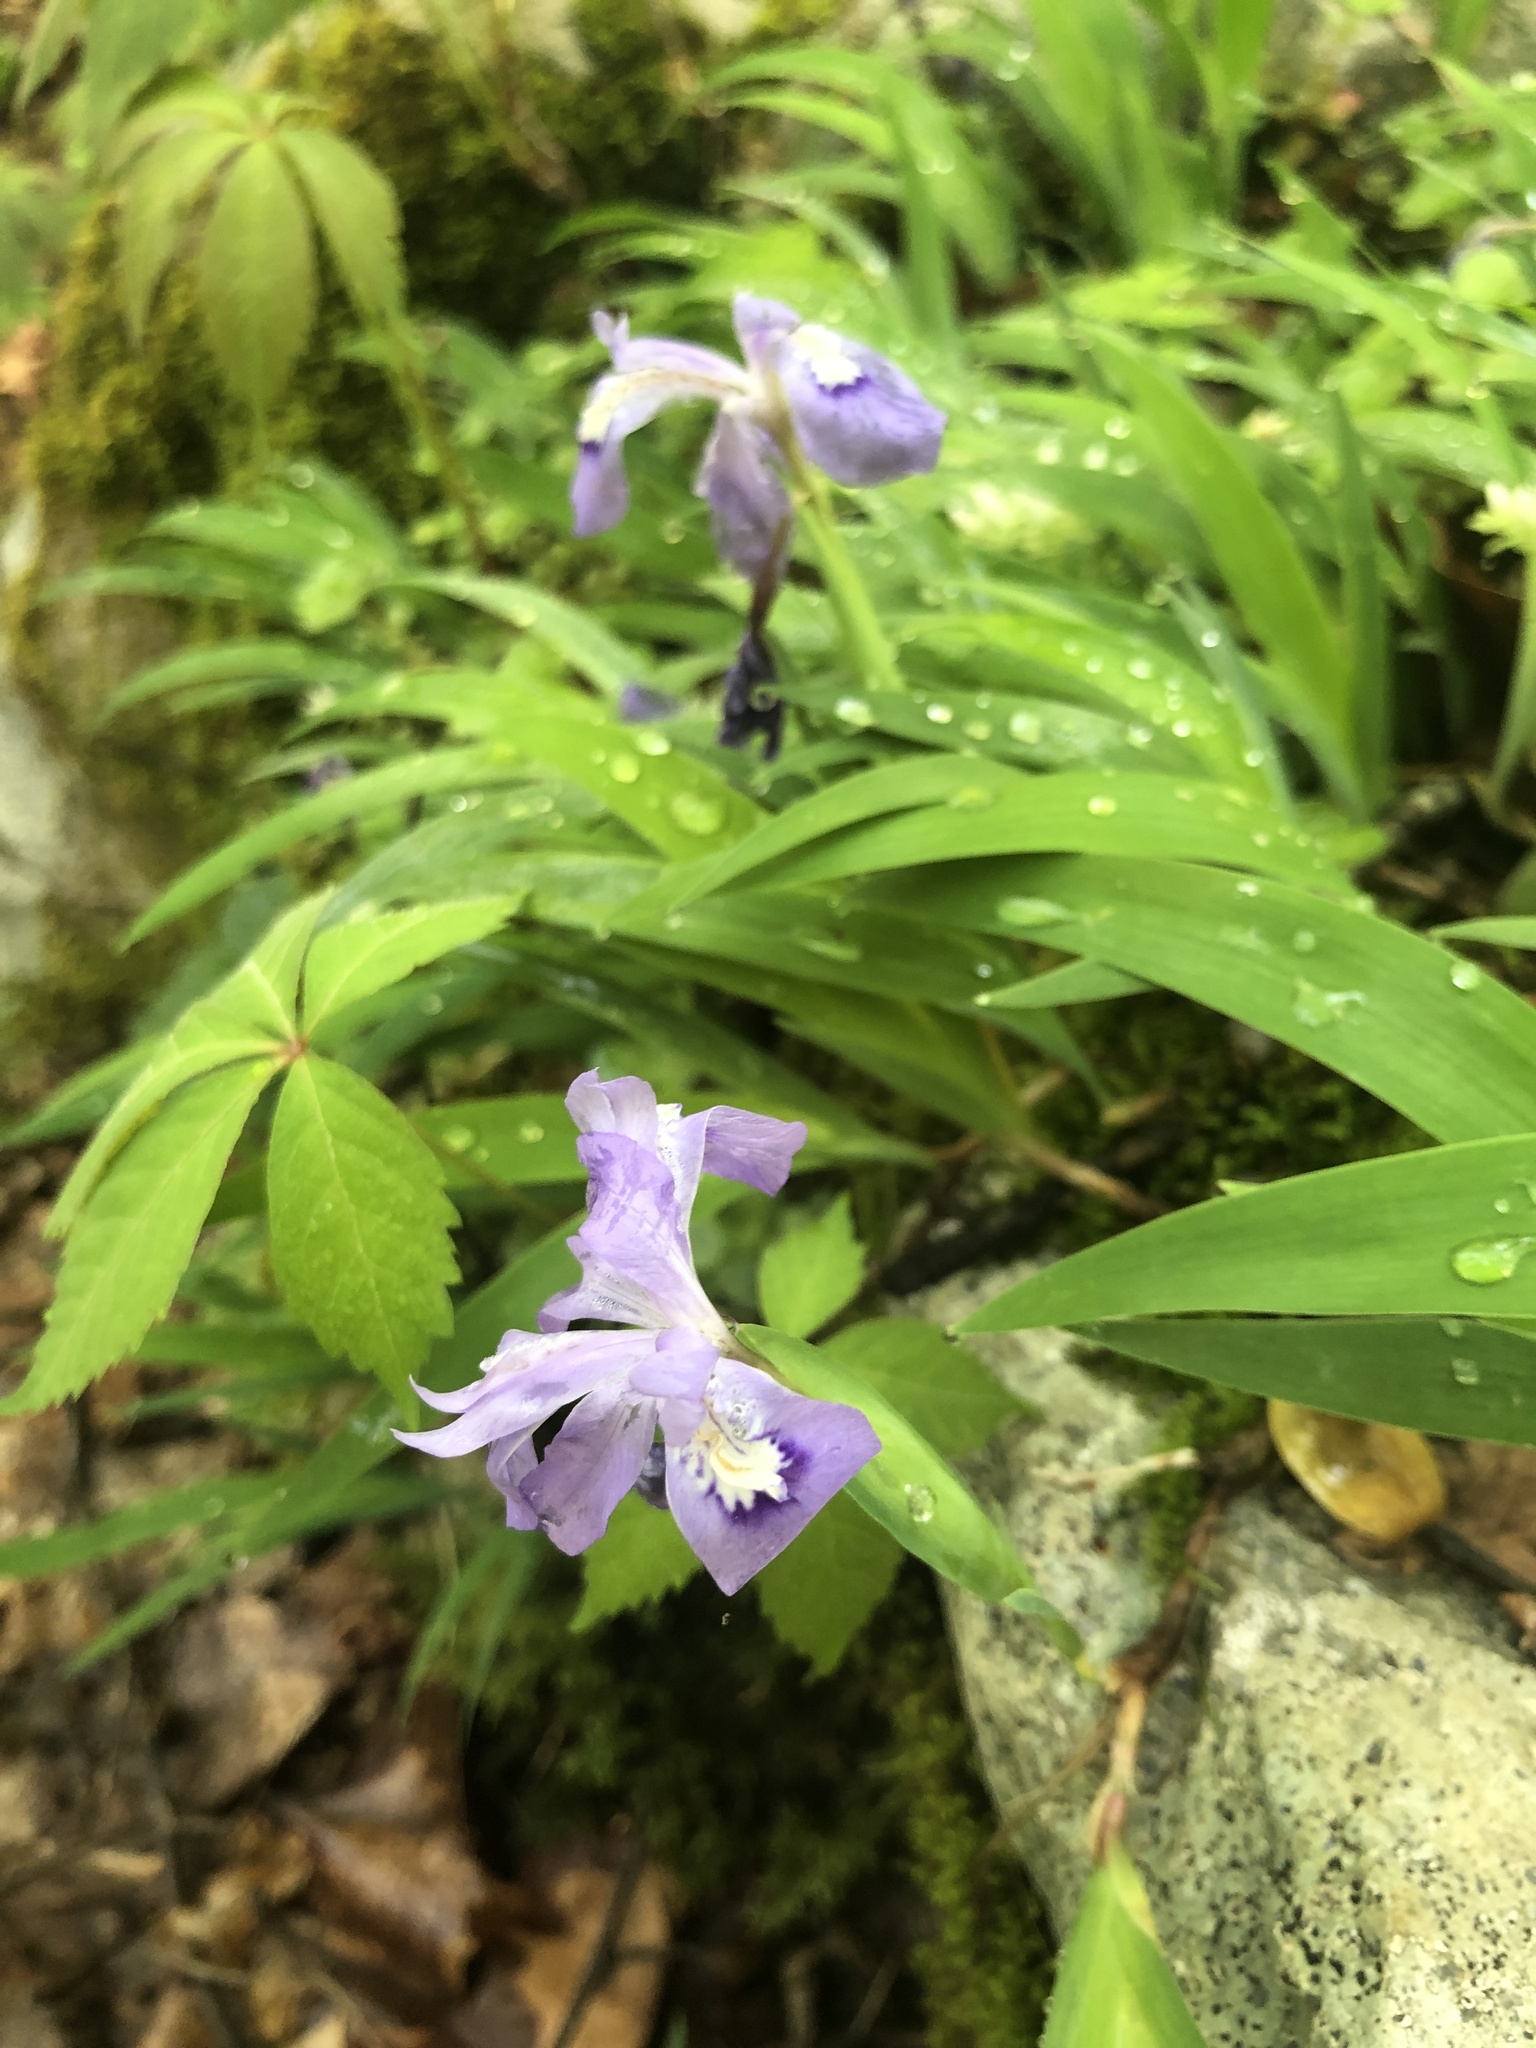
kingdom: Plantae
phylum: Tracheophyta
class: Liliopsida
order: Asparagales
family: Iridaceae
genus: Iris
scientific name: Iris cristata
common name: Crested iris
